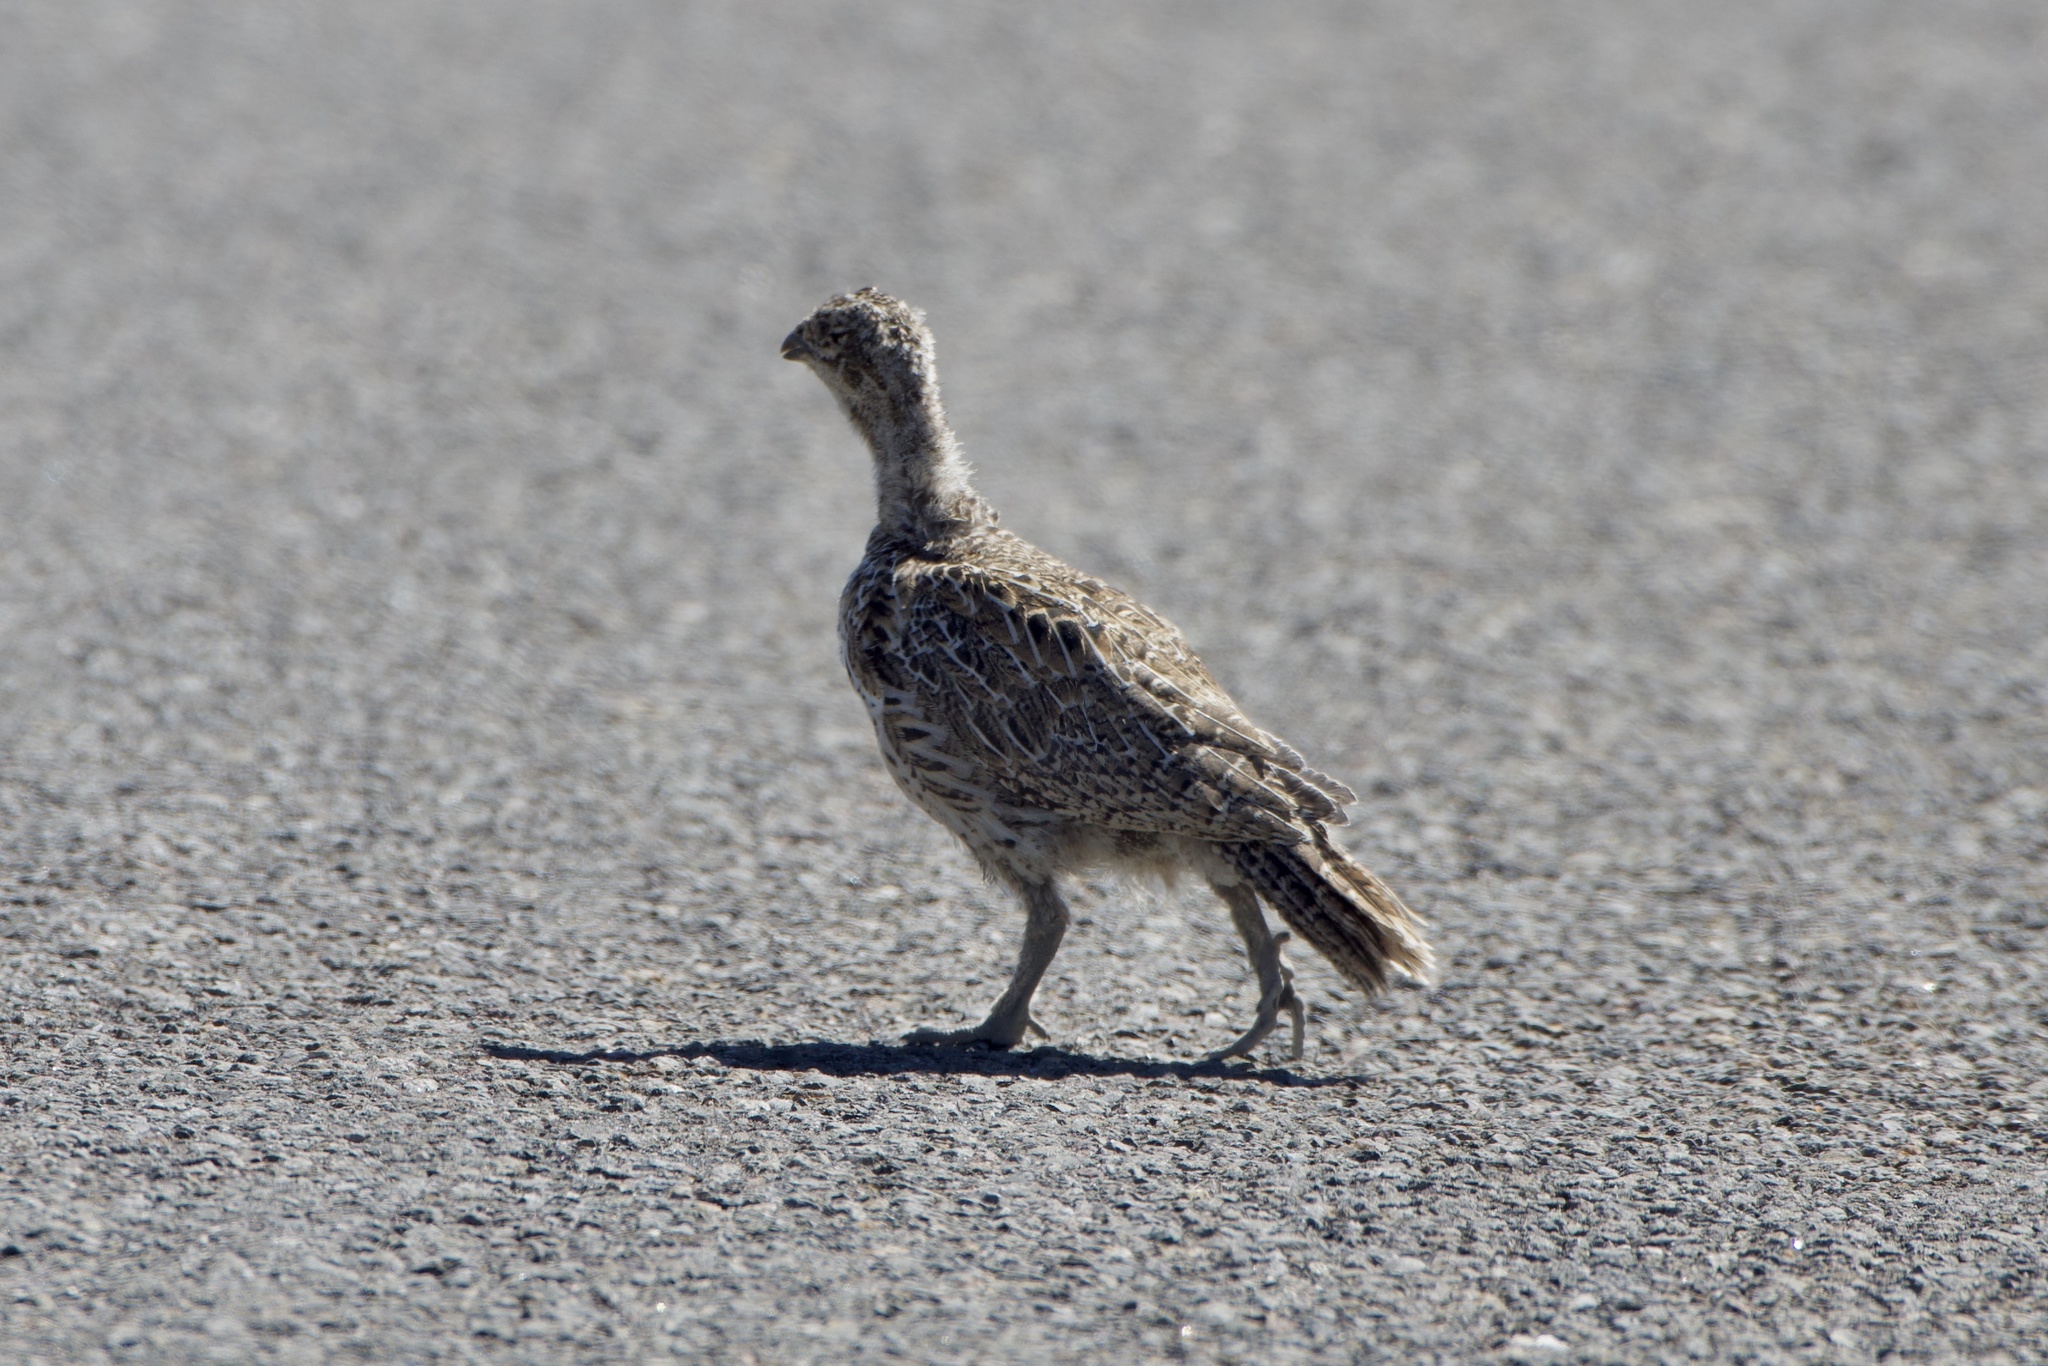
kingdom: Animalia
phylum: Chordata
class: Aves
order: Galliformes
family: Phasianidae
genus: Centrocercus
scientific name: Centrocercus urophasianus
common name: Sage grouse
